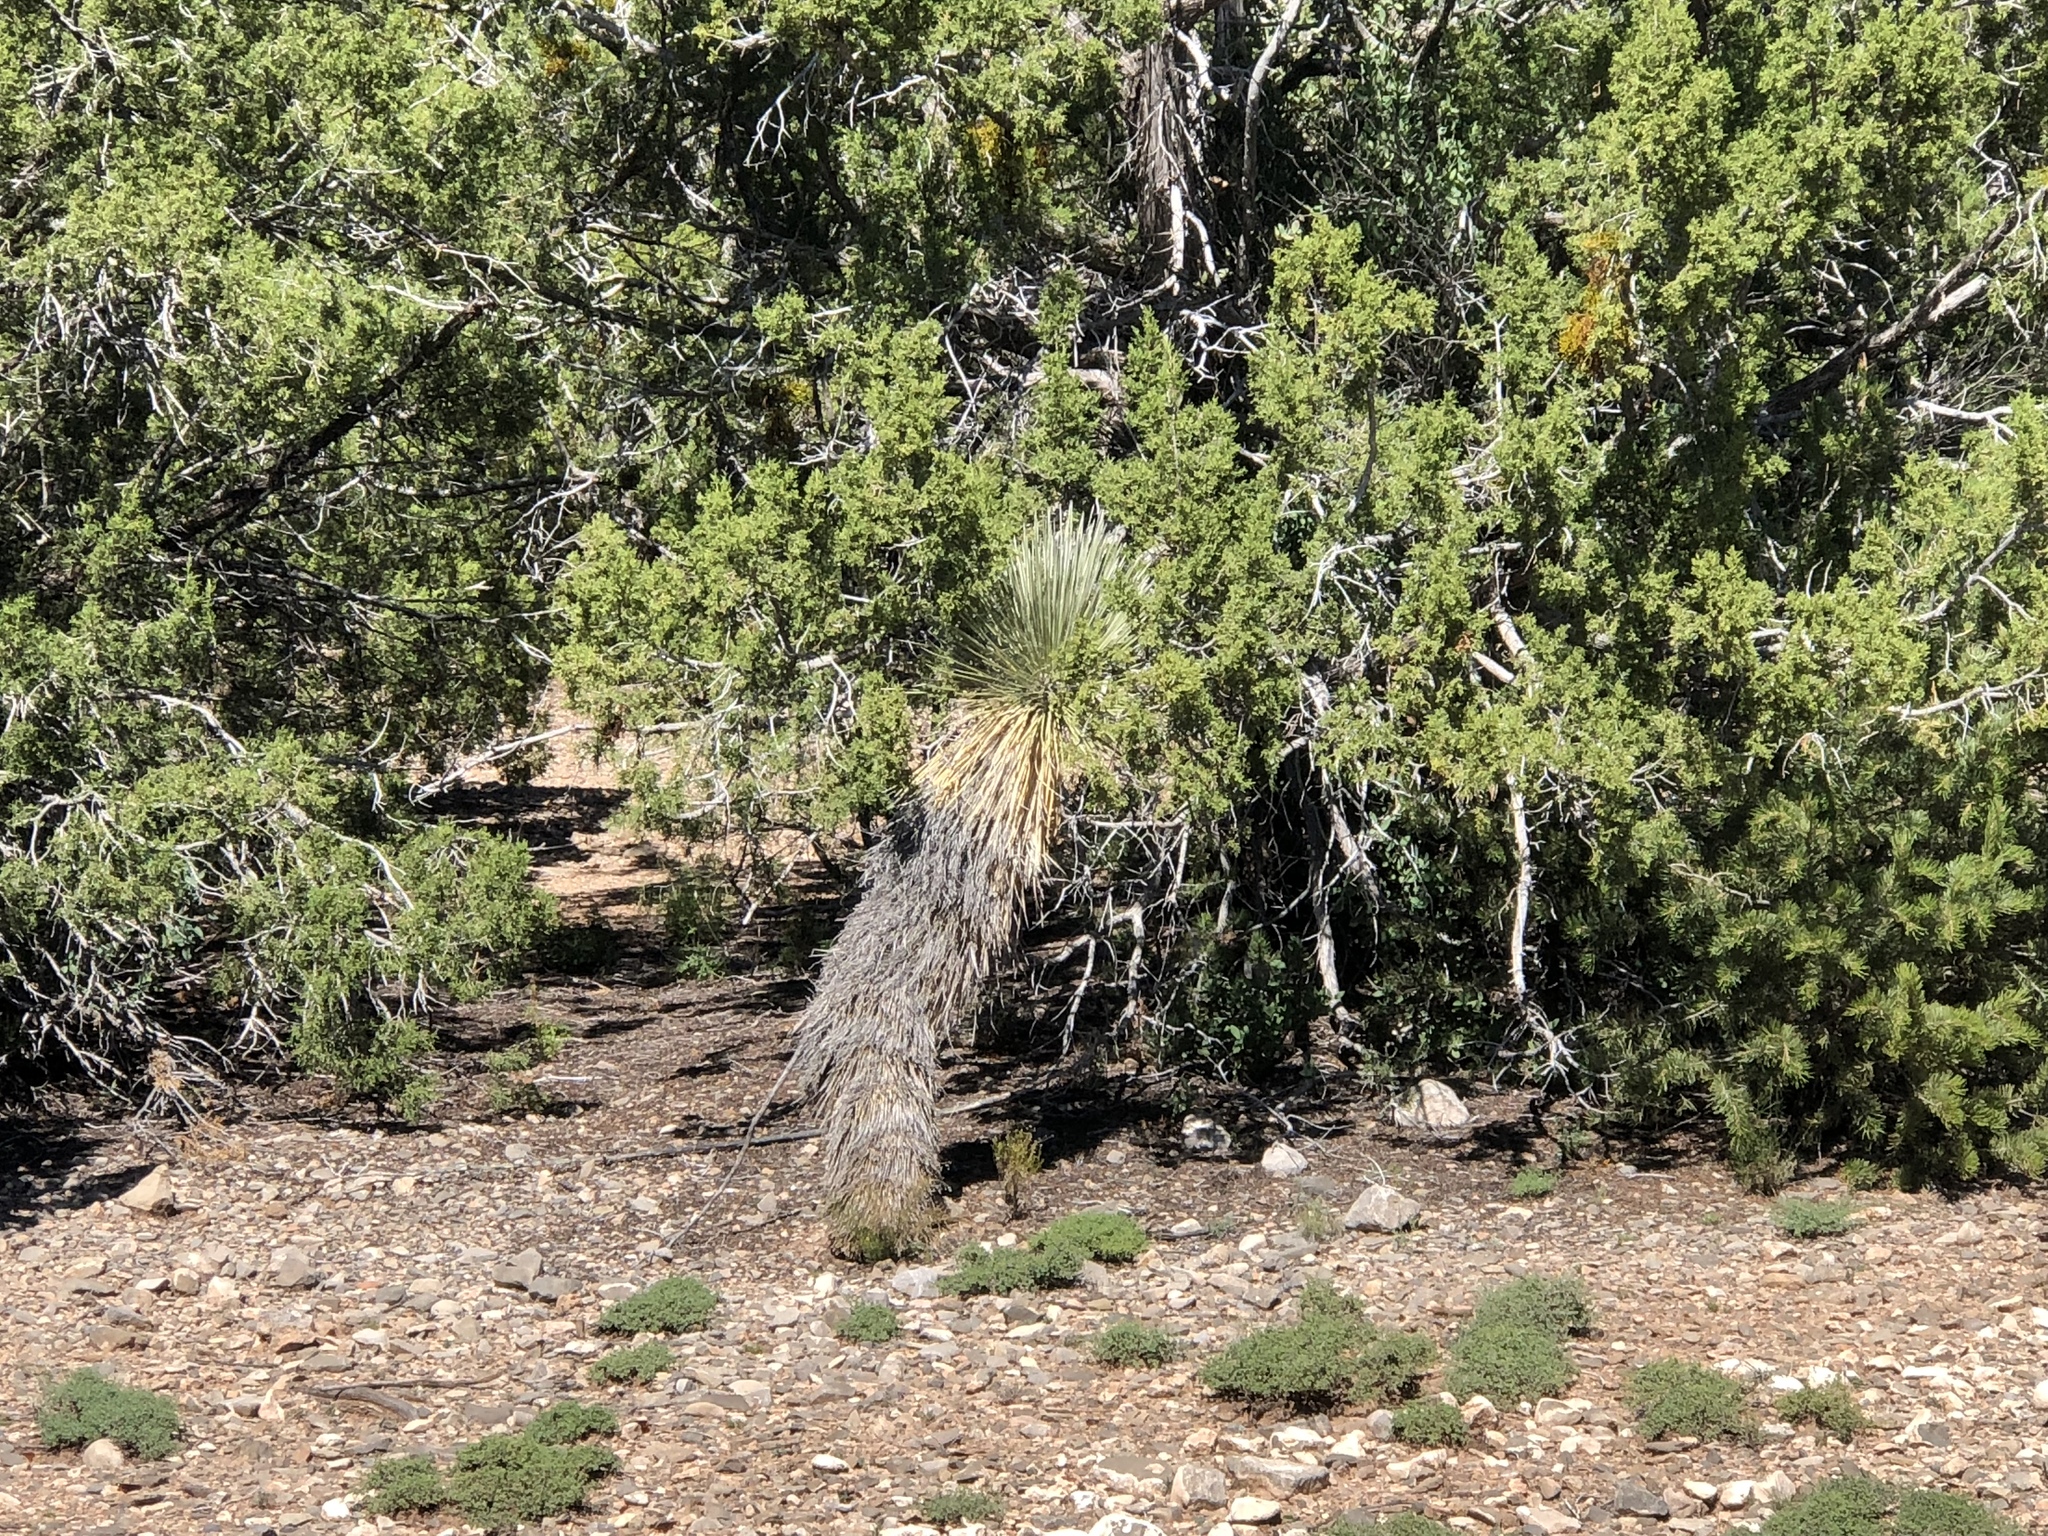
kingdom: Plantae
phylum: Tracheophyta
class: Liliopsida
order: Asparagales
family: Asparagaceae
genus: Yucca
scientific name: Yucca elata
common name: Palmella
